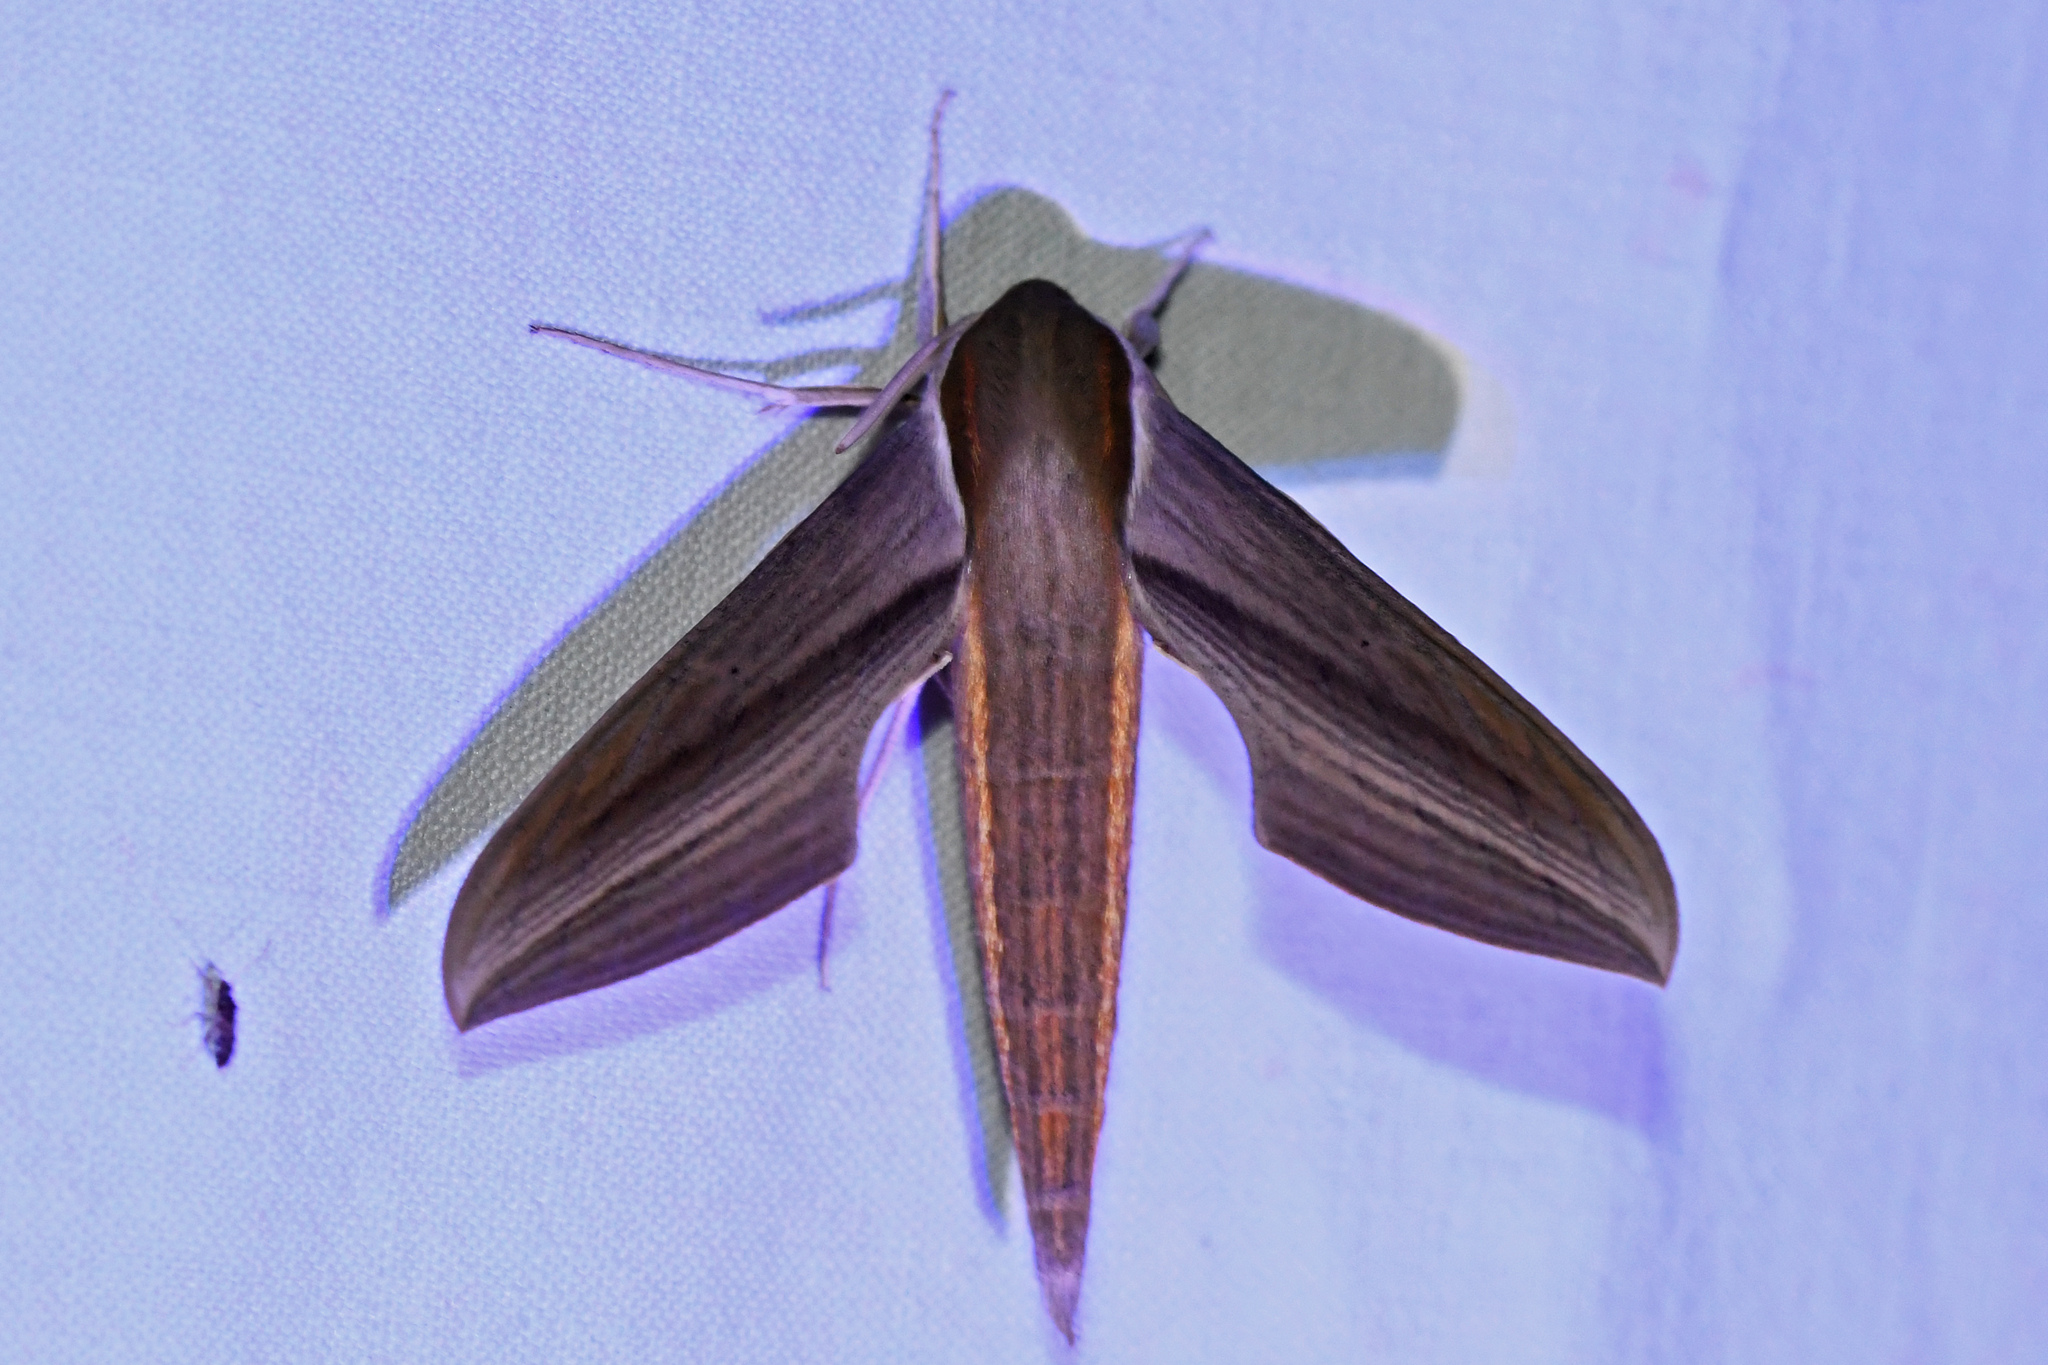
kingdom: Animalia
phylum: Arthropoda
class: Insecta
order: Lepidoptera
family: Sphingidae
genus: Xylophanes
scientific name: Xylophanes tersa
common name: Tersa sphinx
